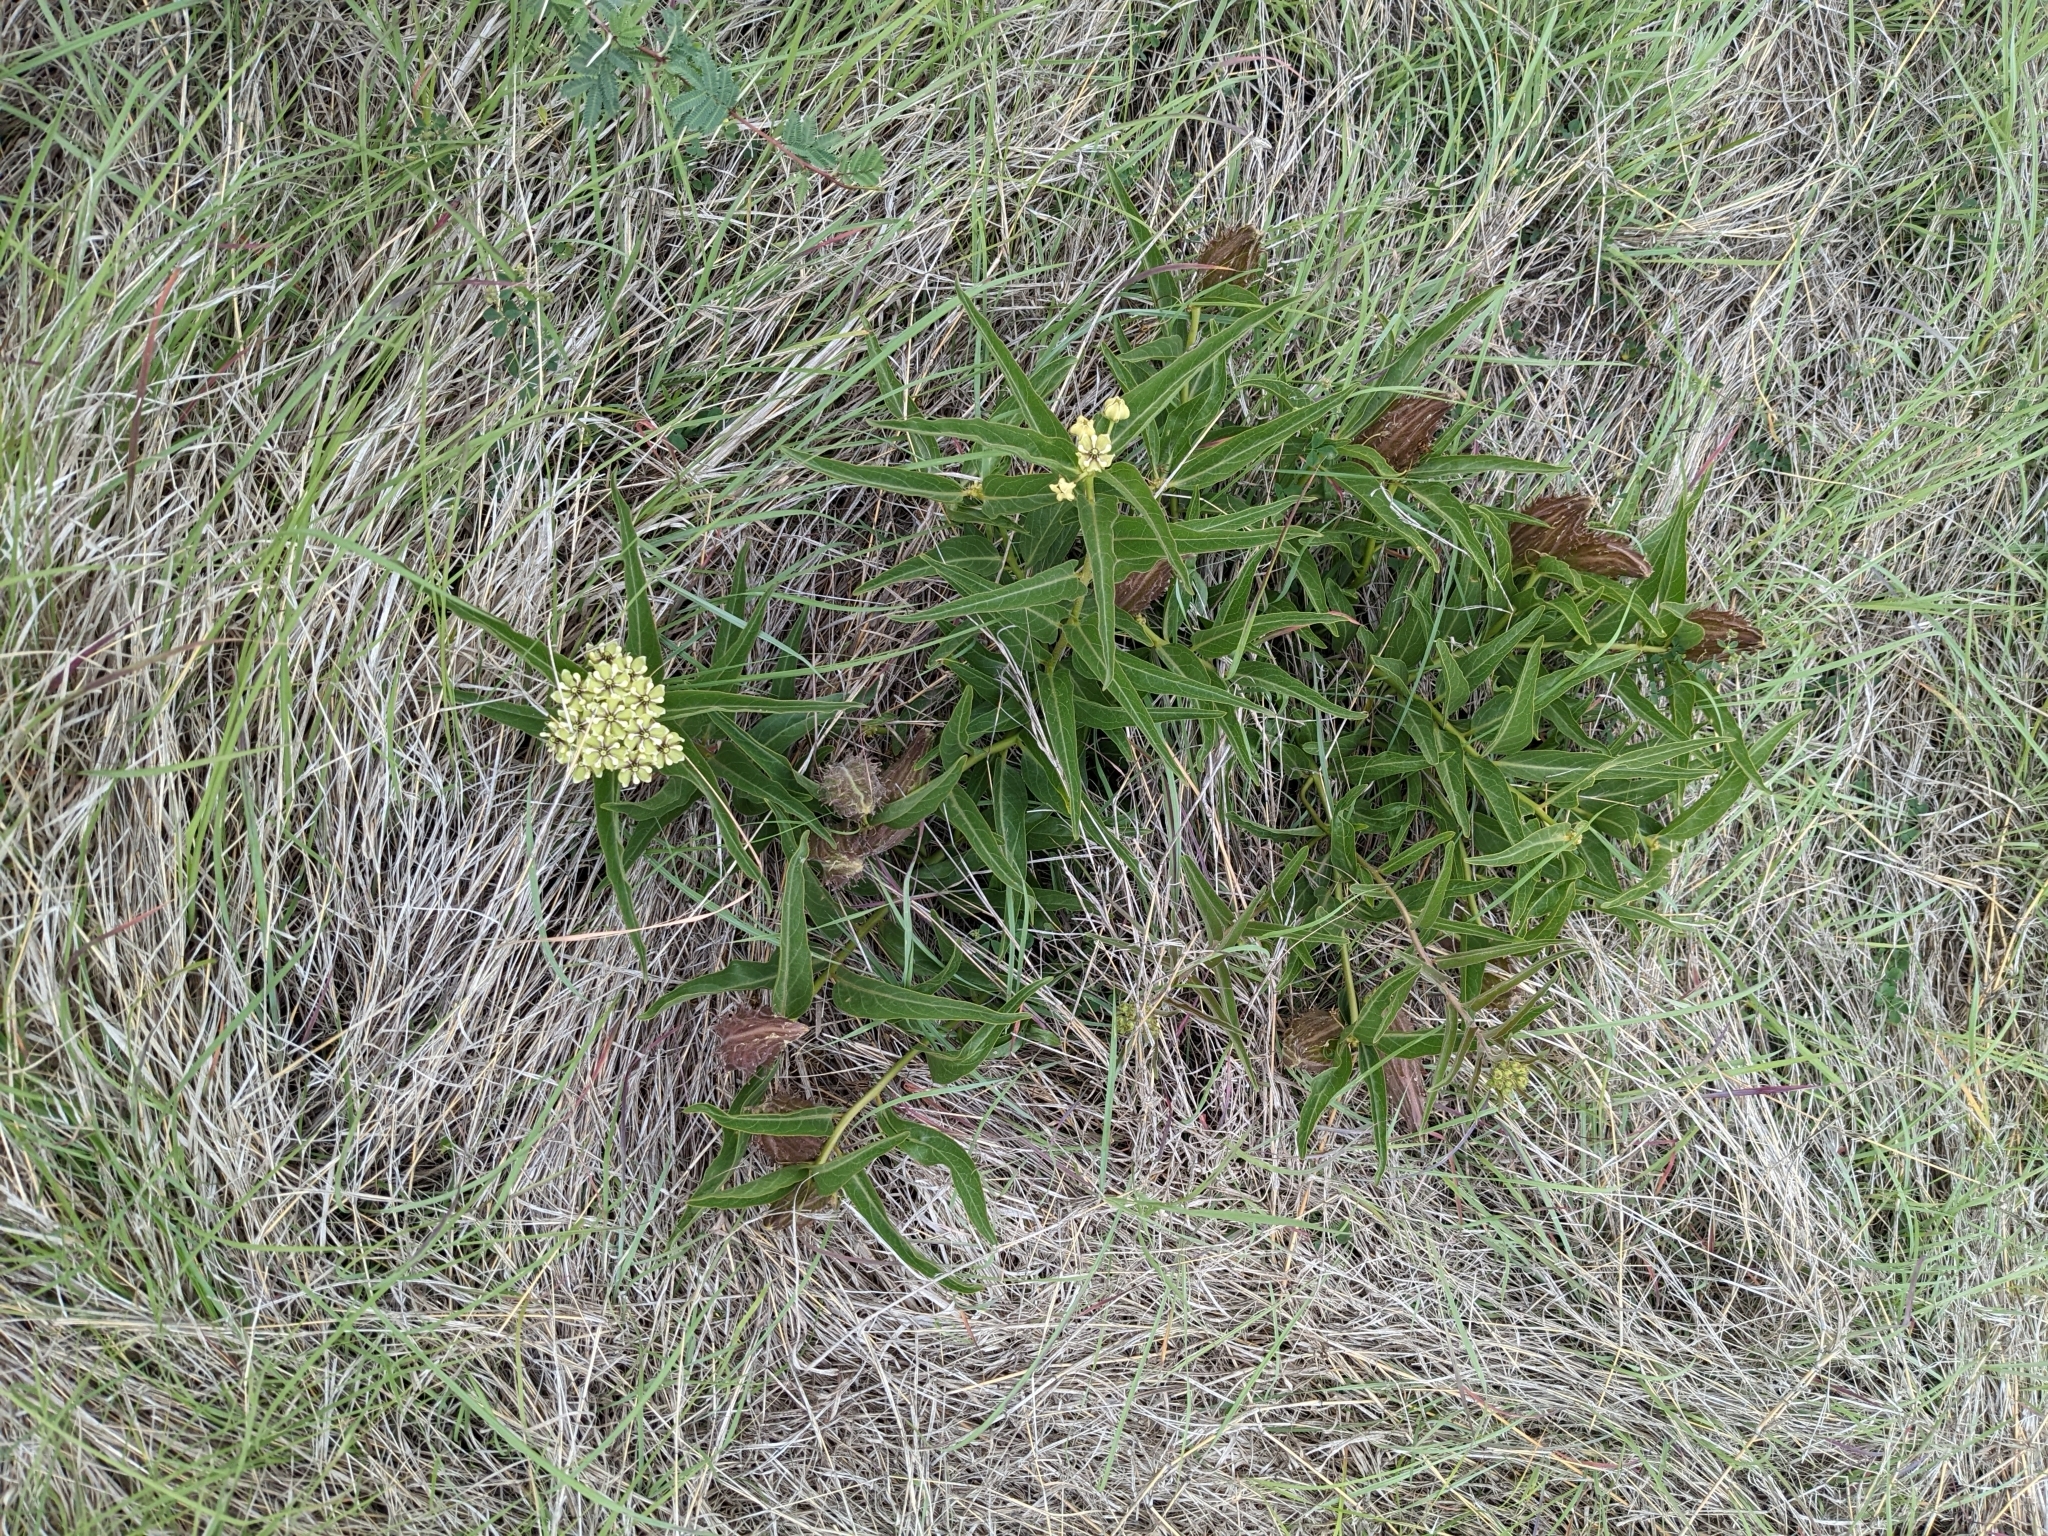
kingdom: Plantae
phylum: Tracheophyta
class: Magnoliopsida
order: Gentianales
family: Apocynaceae
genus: Asclepias
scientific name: Asclepias asperula
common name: Antelope horns
